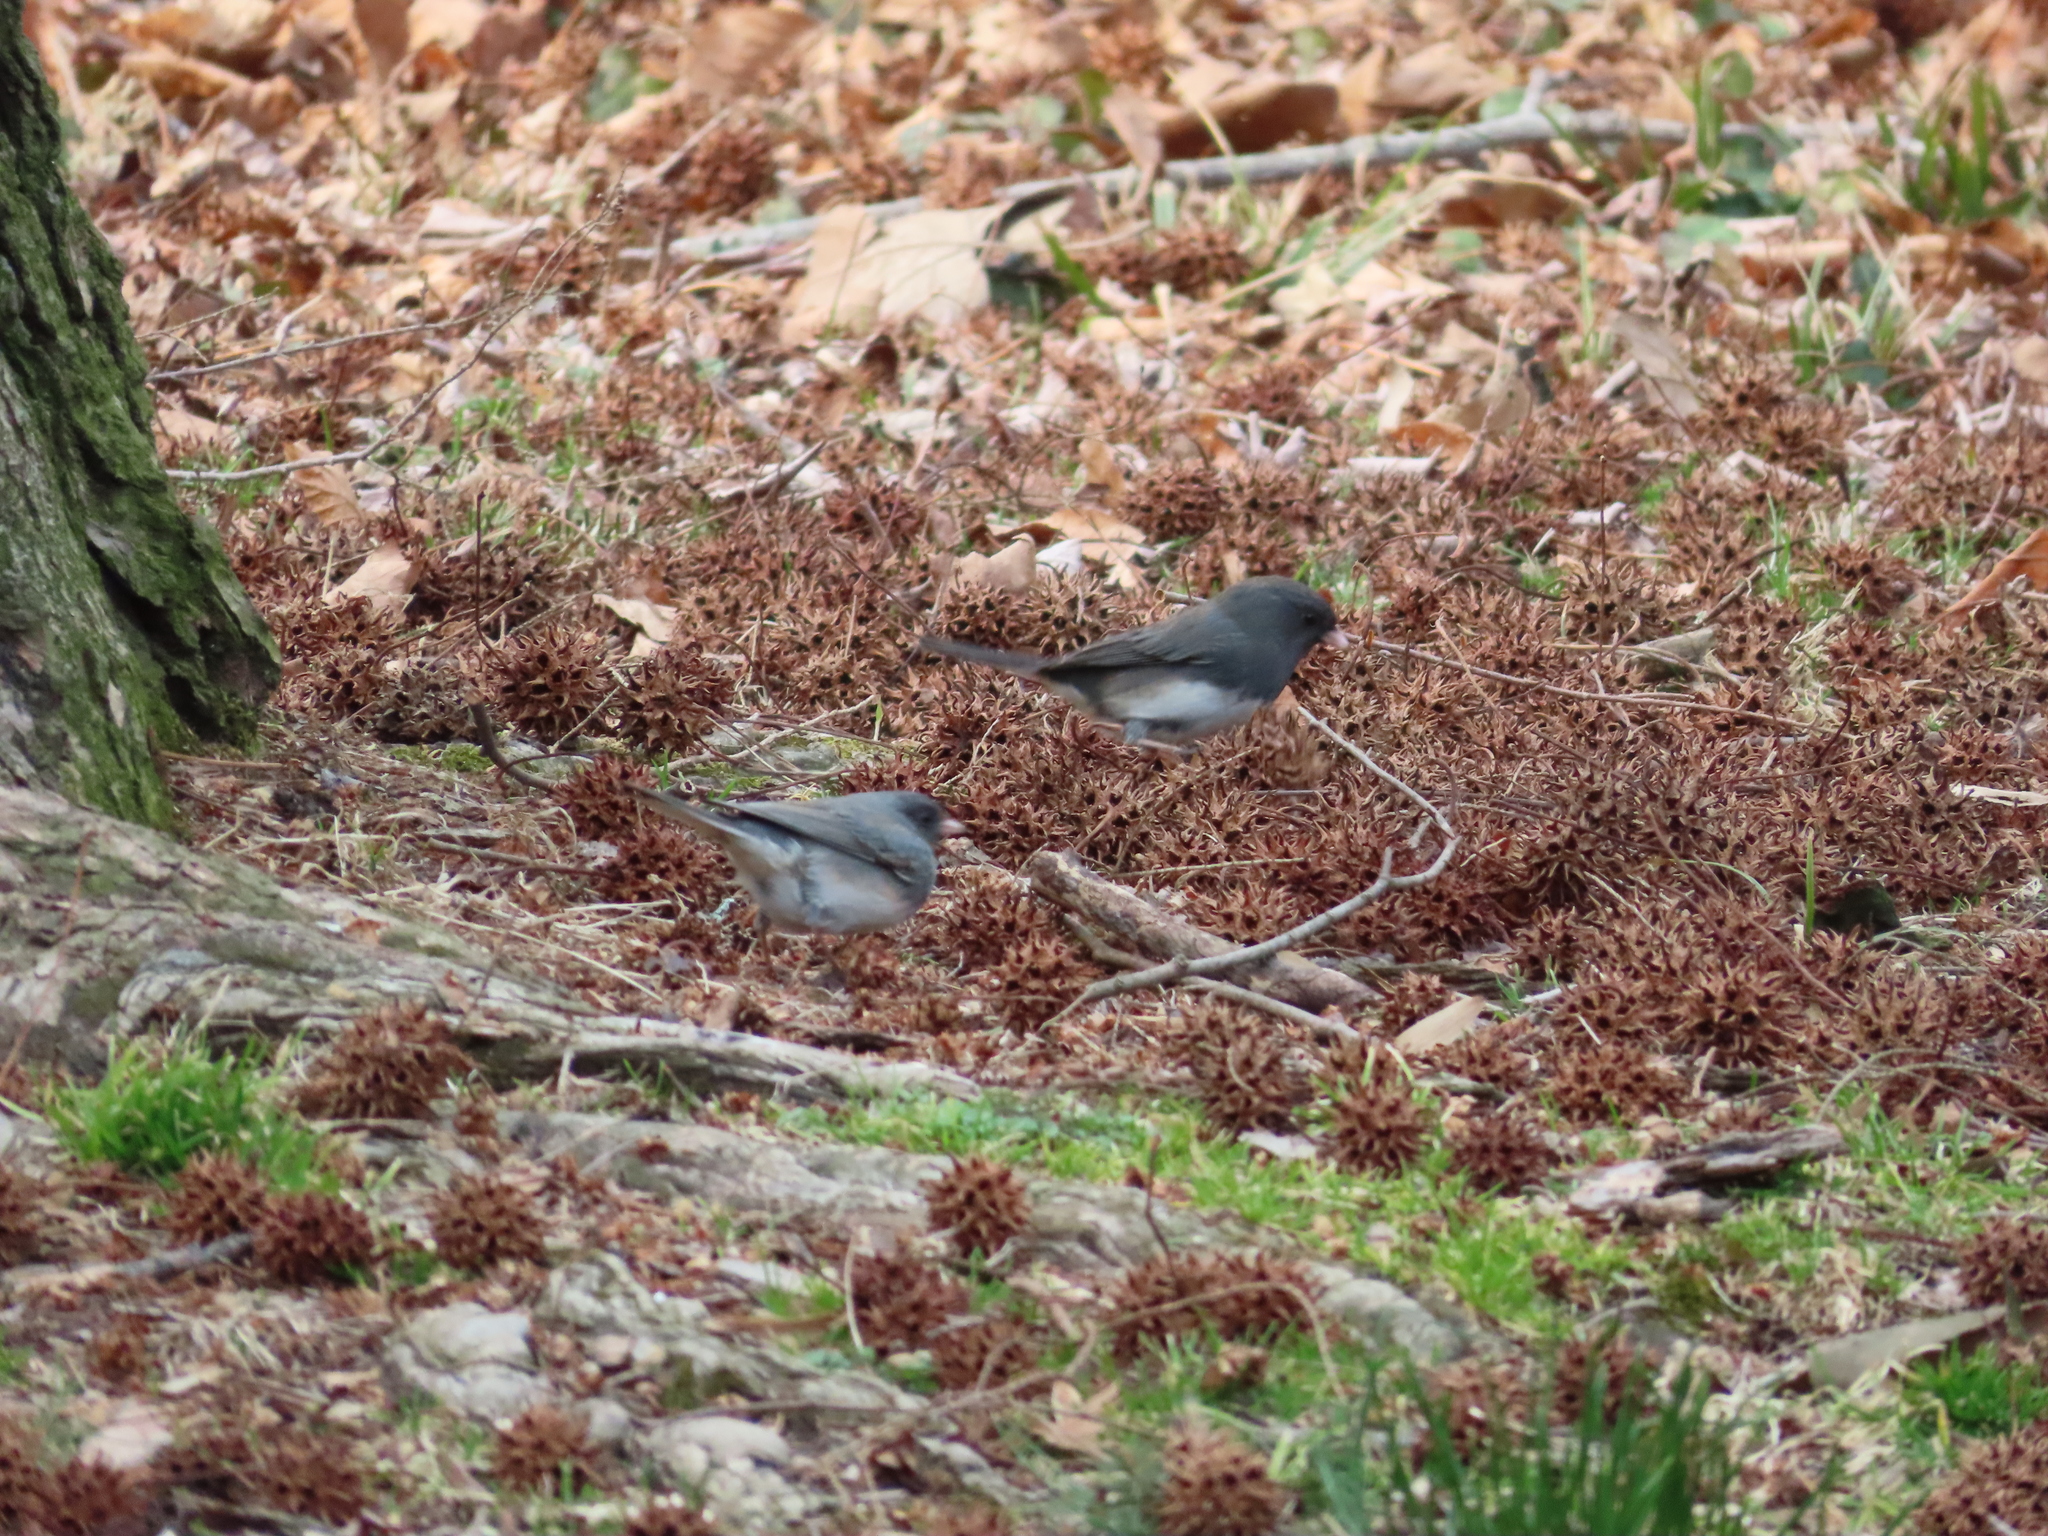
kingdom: Animalia
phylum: Chordata
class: Aves
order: Passeriformes
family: Passerellidae
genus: Junco
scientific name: Junco hyemalis
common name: Dark-eyed junco
